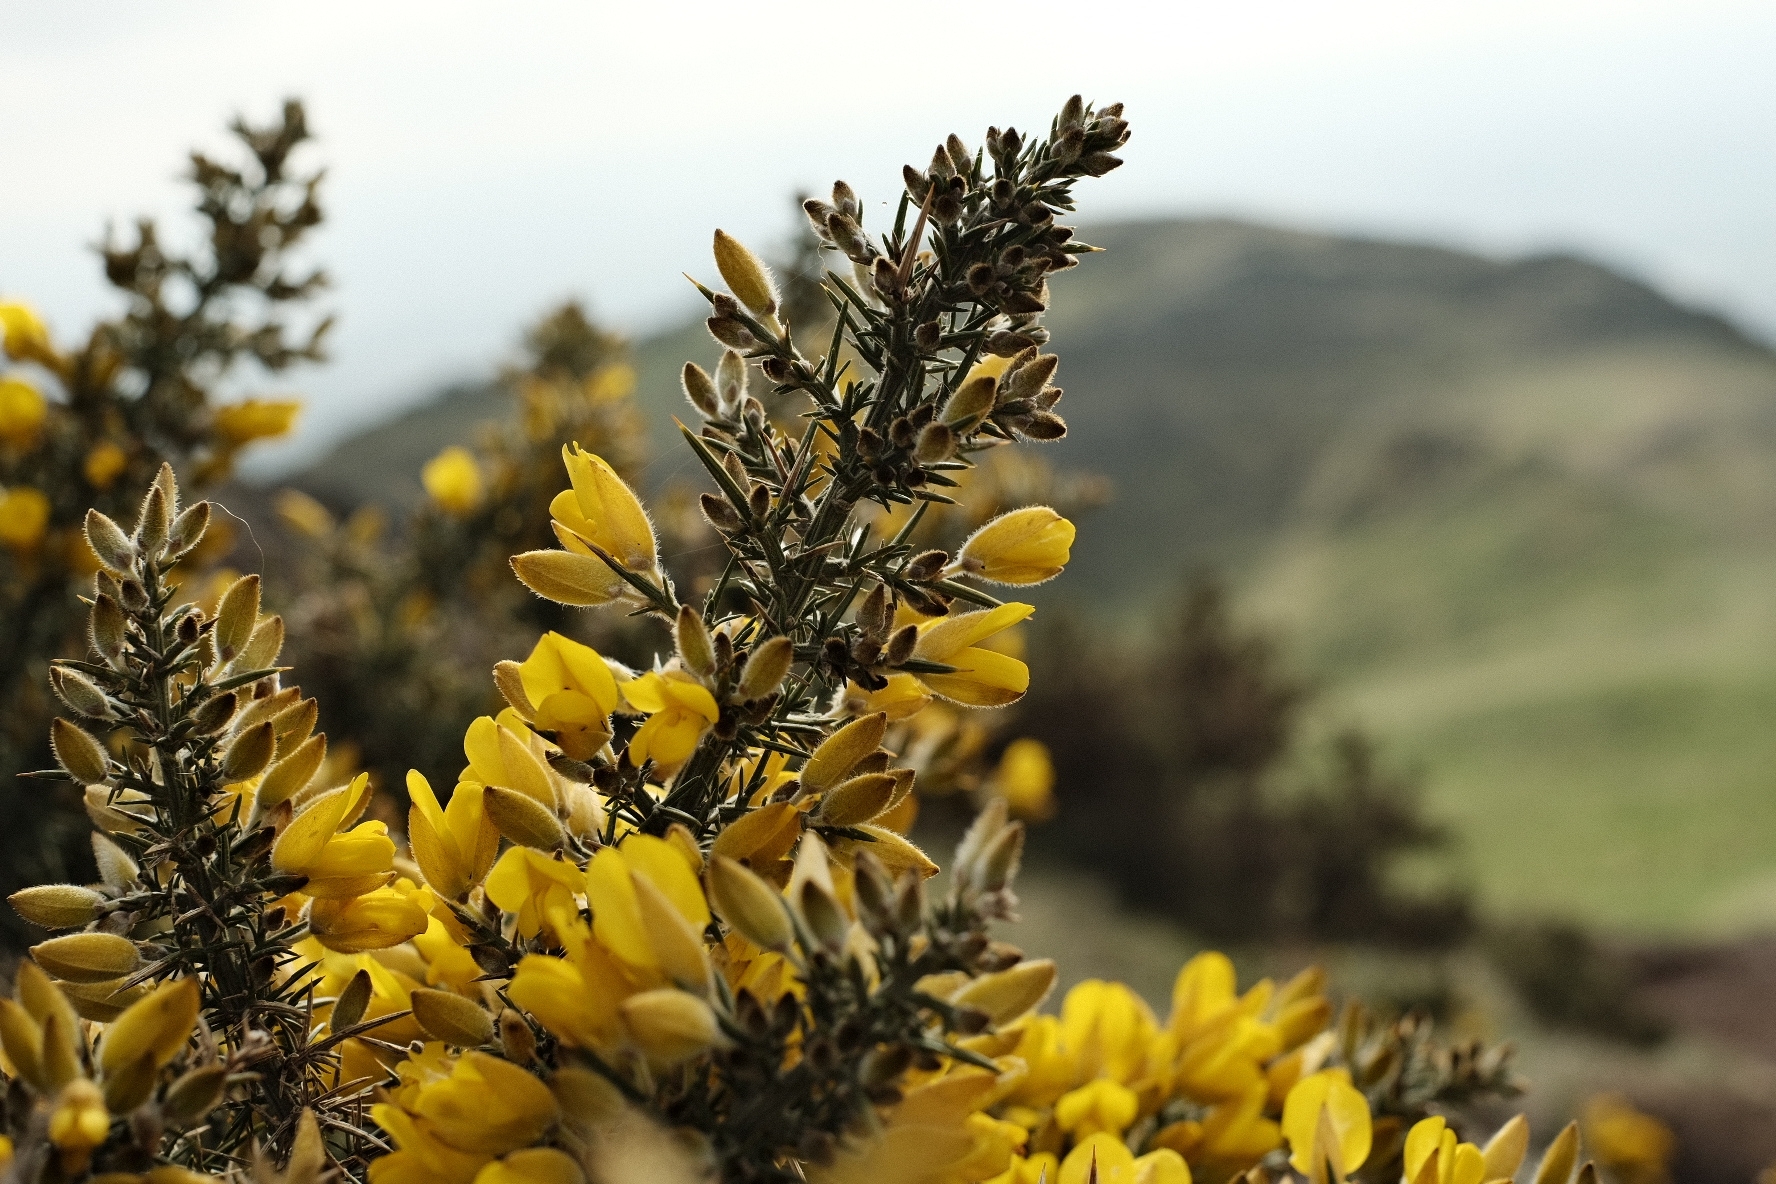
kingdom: Plantae
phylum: Tracheophyta
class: Magnoliopsida
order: Fabales
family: Fabaceae
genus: Ulex
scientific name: Ulex europaeus
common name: Common gorse
